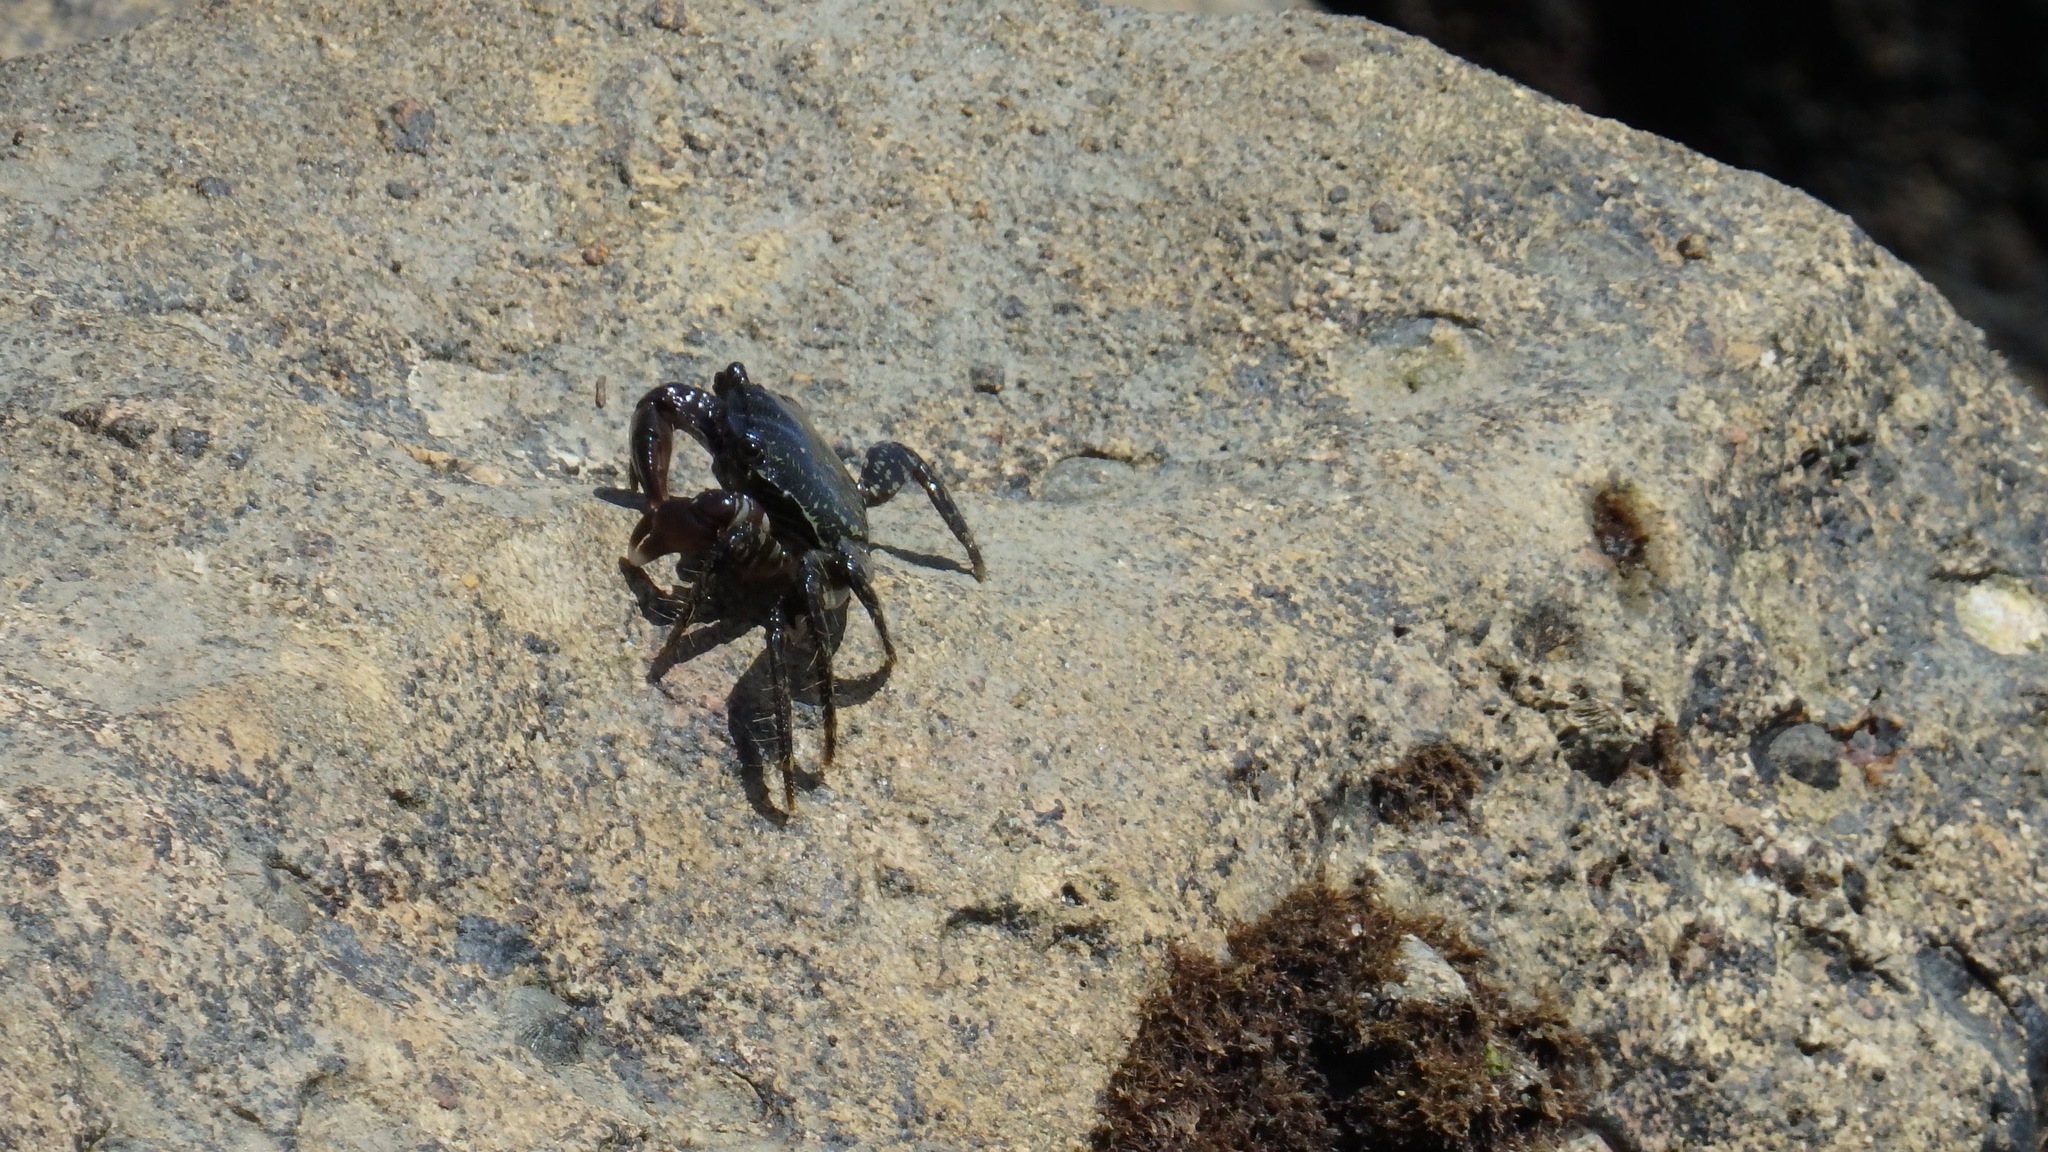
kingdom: Animalia
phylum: Arthropoda
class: Malacostraca
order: Decapoda
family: Grapsidae
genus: Pachygrapsus
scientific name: Pachygrapsus marmoratus
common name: Marbled rock crab
